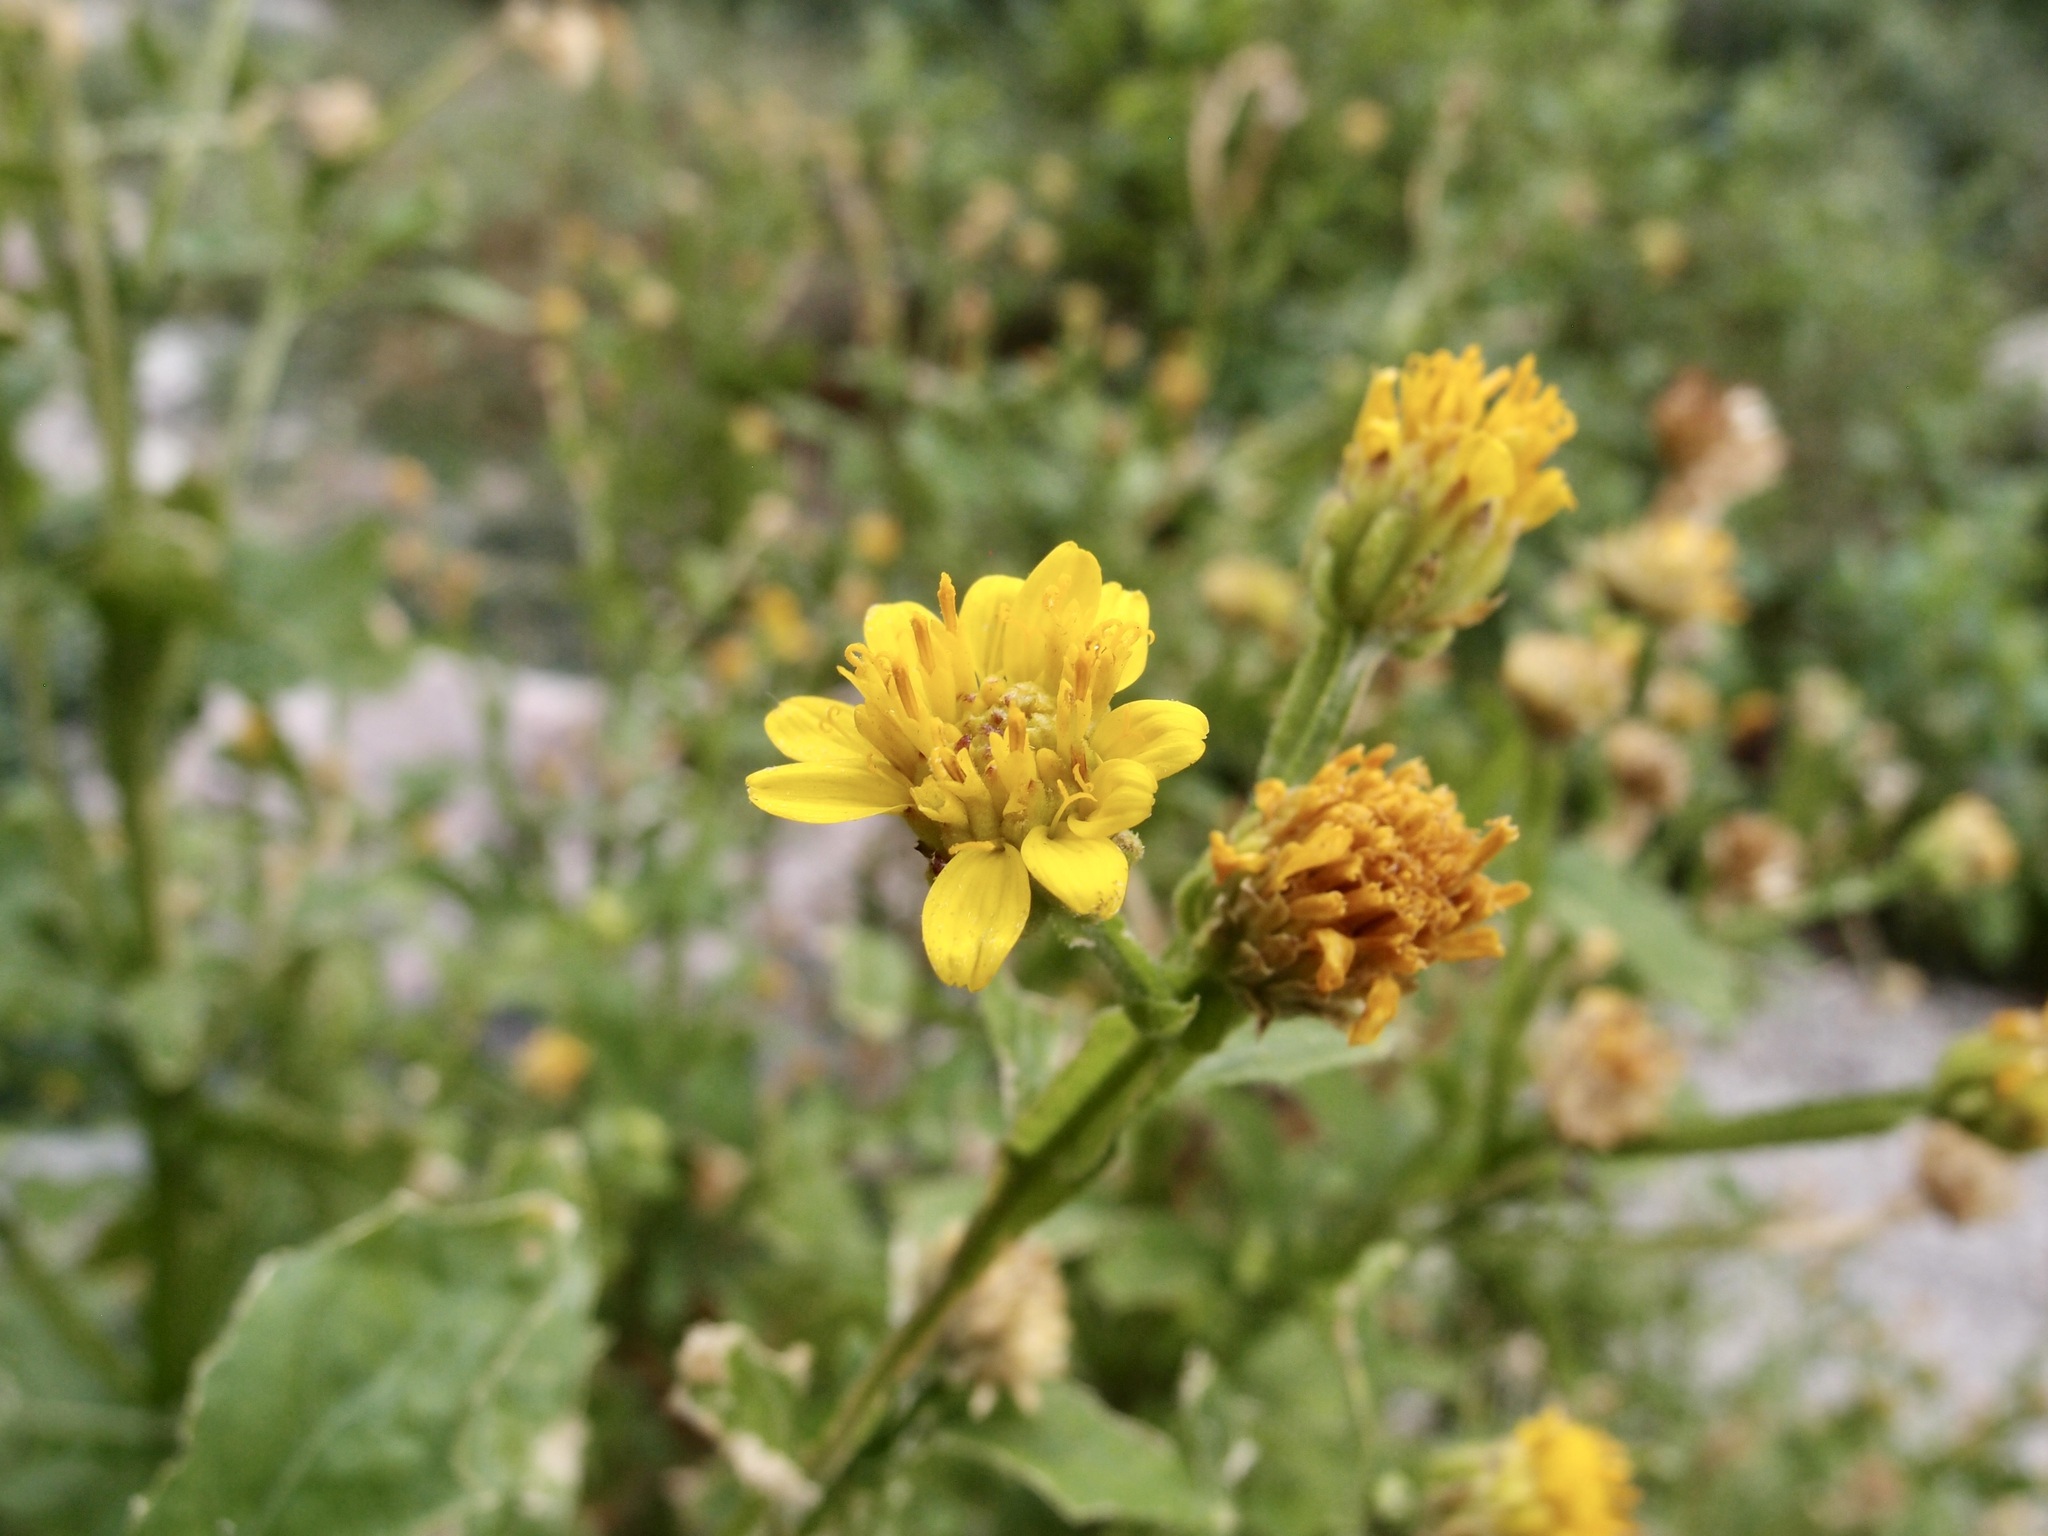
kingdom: Plantae
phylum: Tracheophyta
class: Magnoliopsida
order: Asterales
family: Asteraceae
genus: Verbesina
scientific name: Verbesina felgeri
